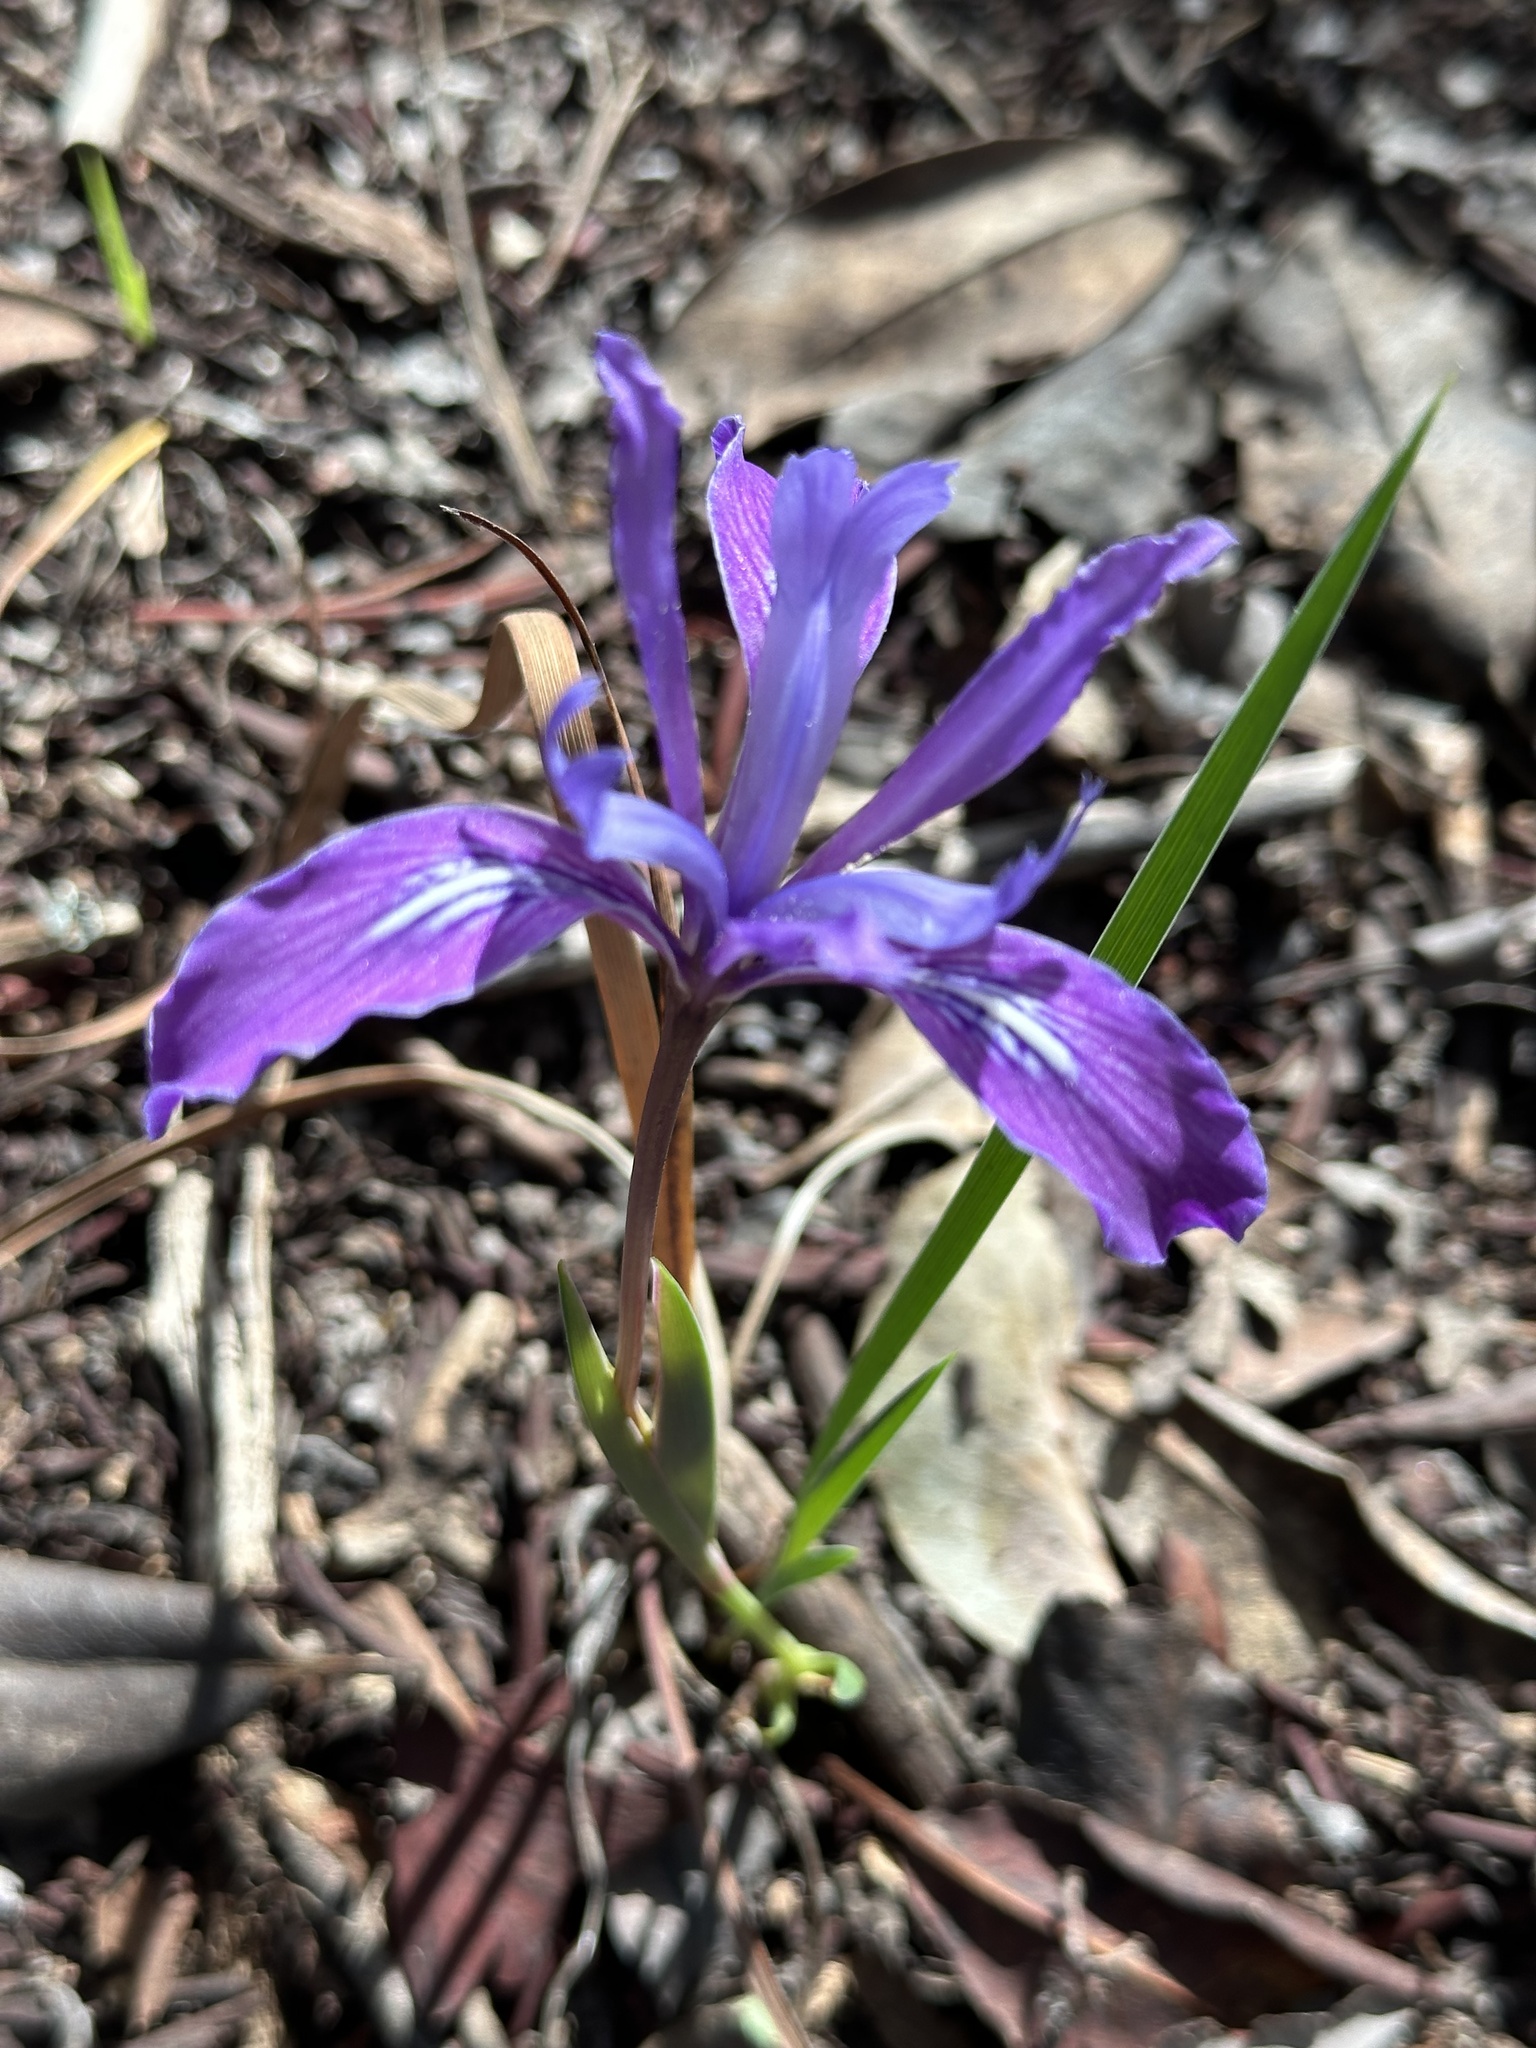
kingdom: Plantae
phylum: Tracheophyta
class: Liliopsida
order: Asparagales
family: Iridaceae
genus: Iris
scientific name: Iris douglasiana
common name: Marin iris
